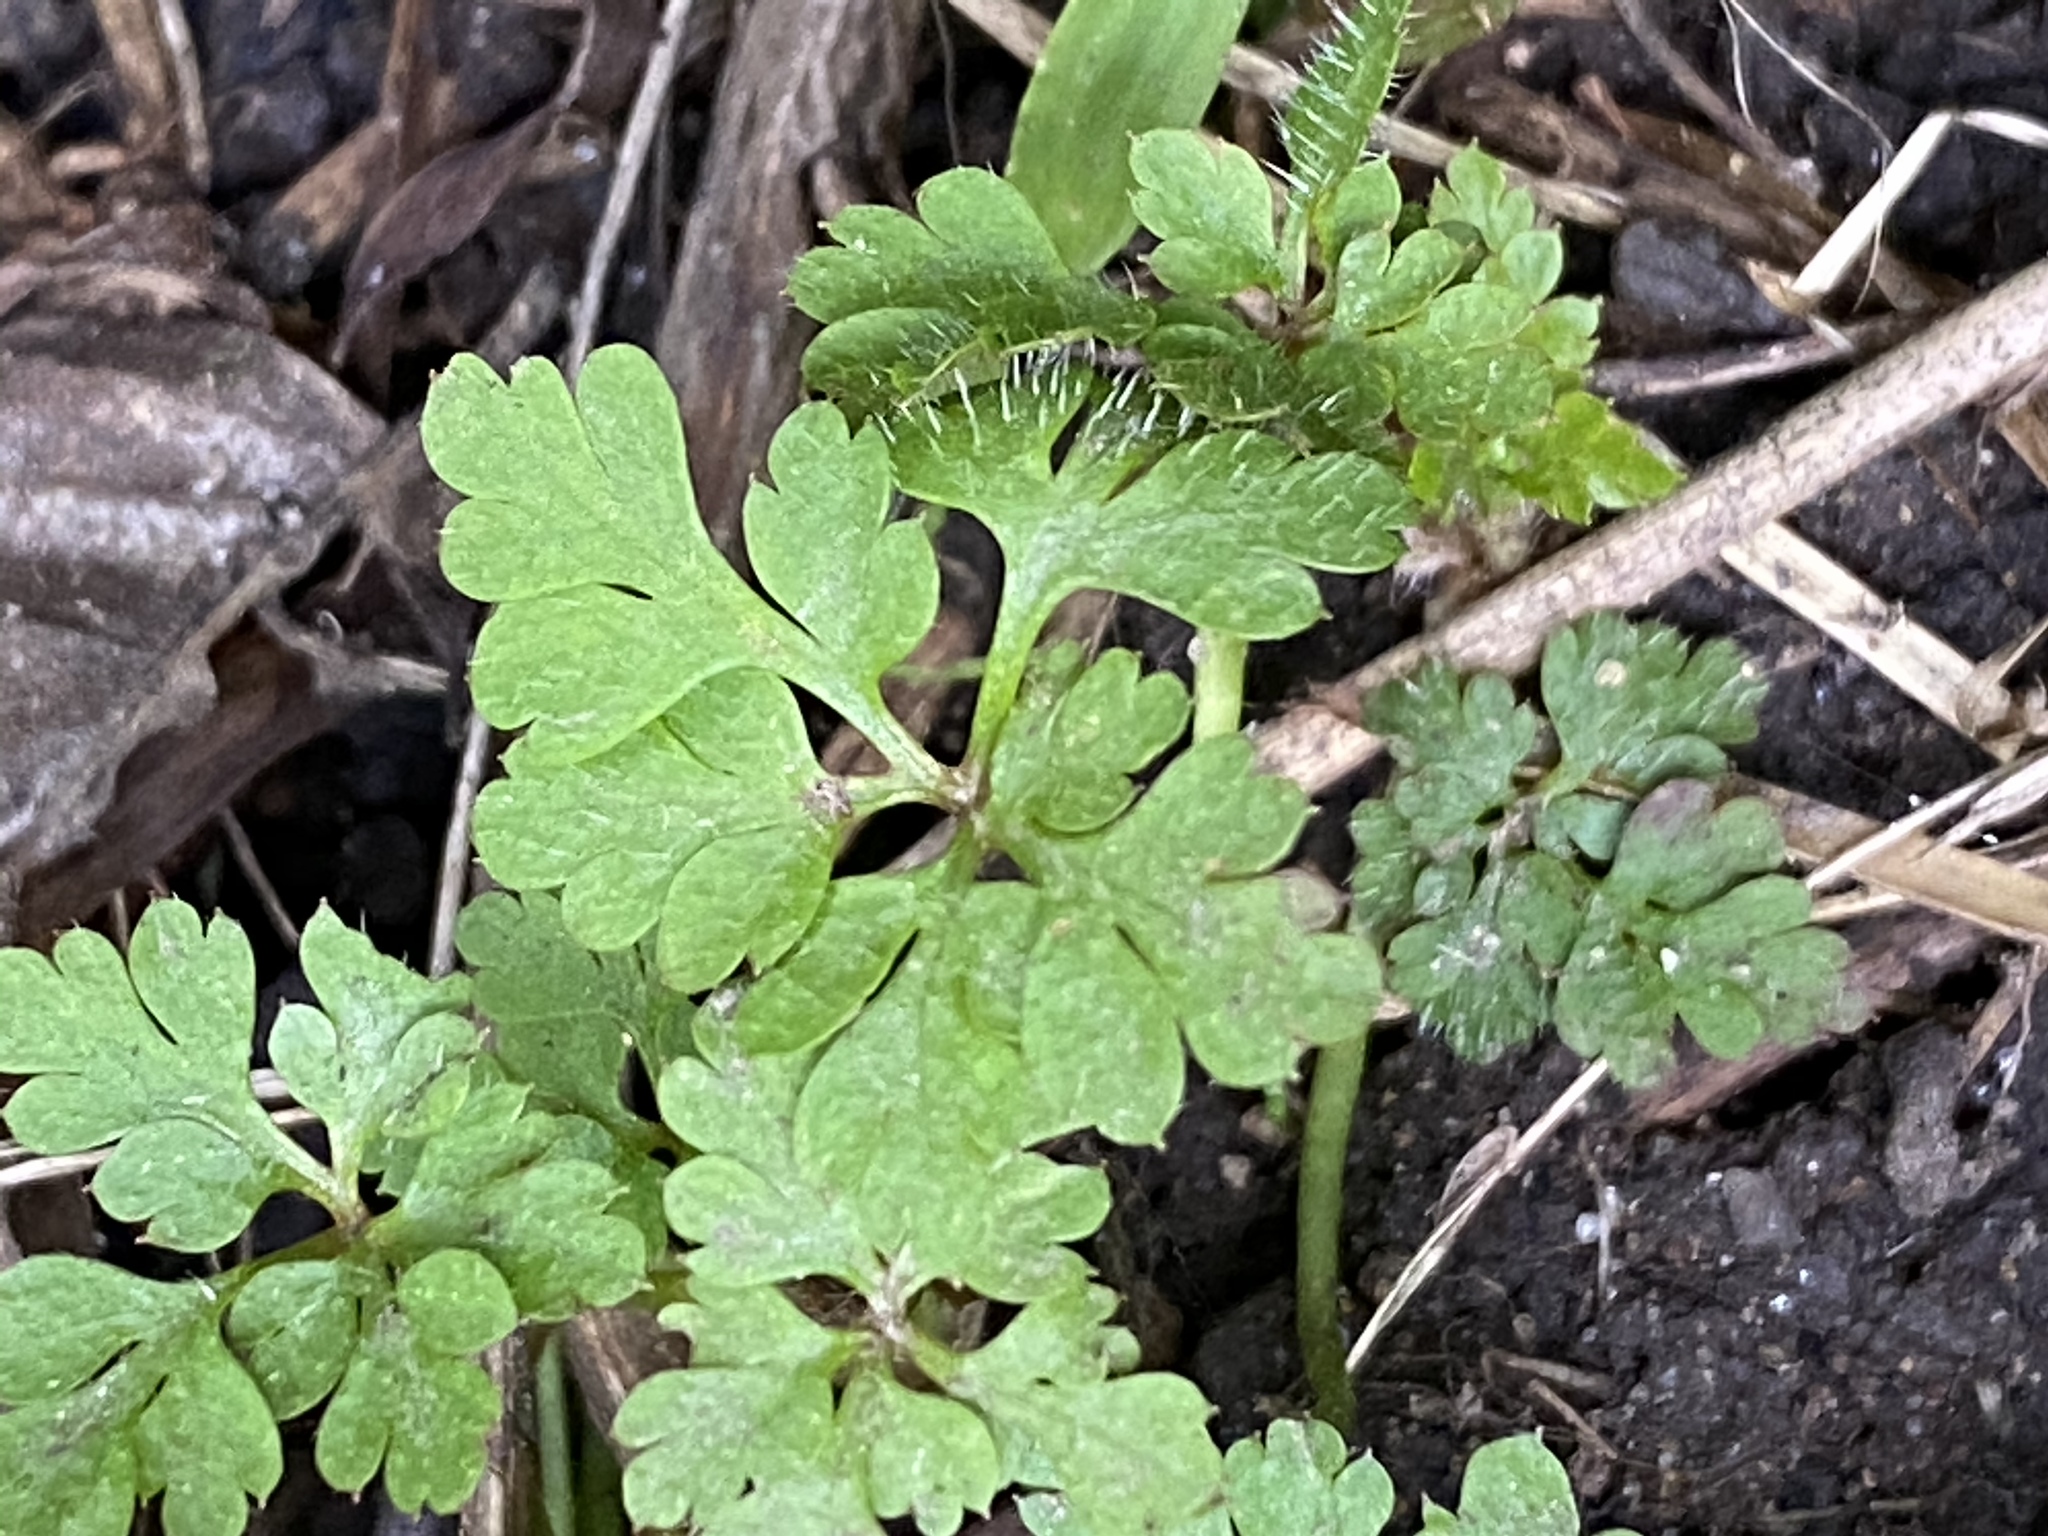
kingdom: Plantae
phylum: Tracheophyta
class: Magnoliopsida
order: Geraniales
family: Geraniaceae
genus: Geranium
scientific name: Geranium
